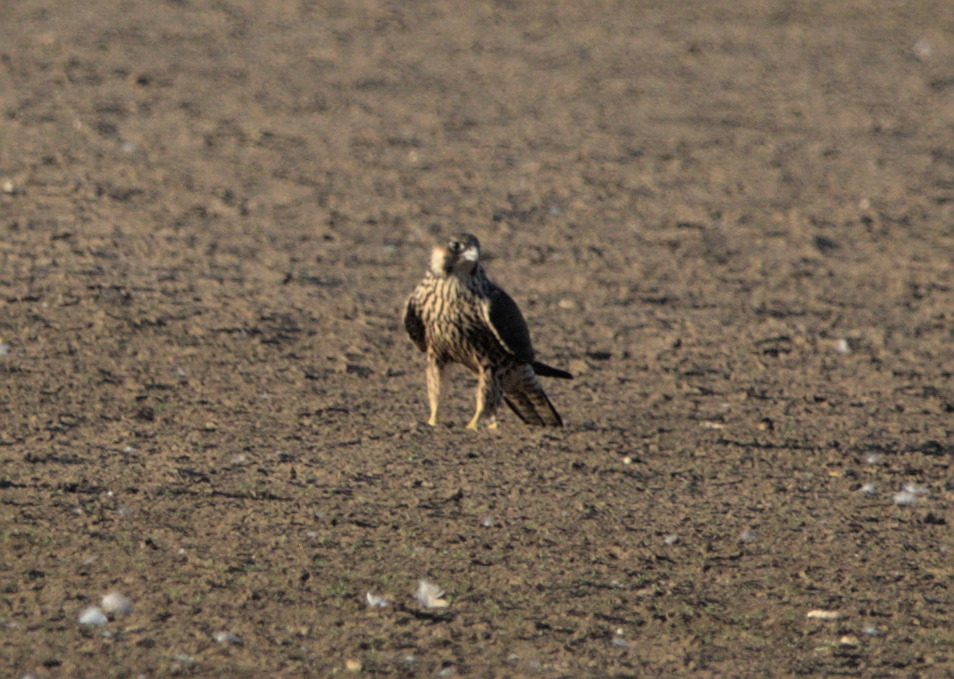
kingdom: Animalia
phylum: Chordata
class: Aves
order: Falconiformes
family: Falconidae
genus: Falco
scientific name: Falco peregrinus
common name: Peregrine falcon
